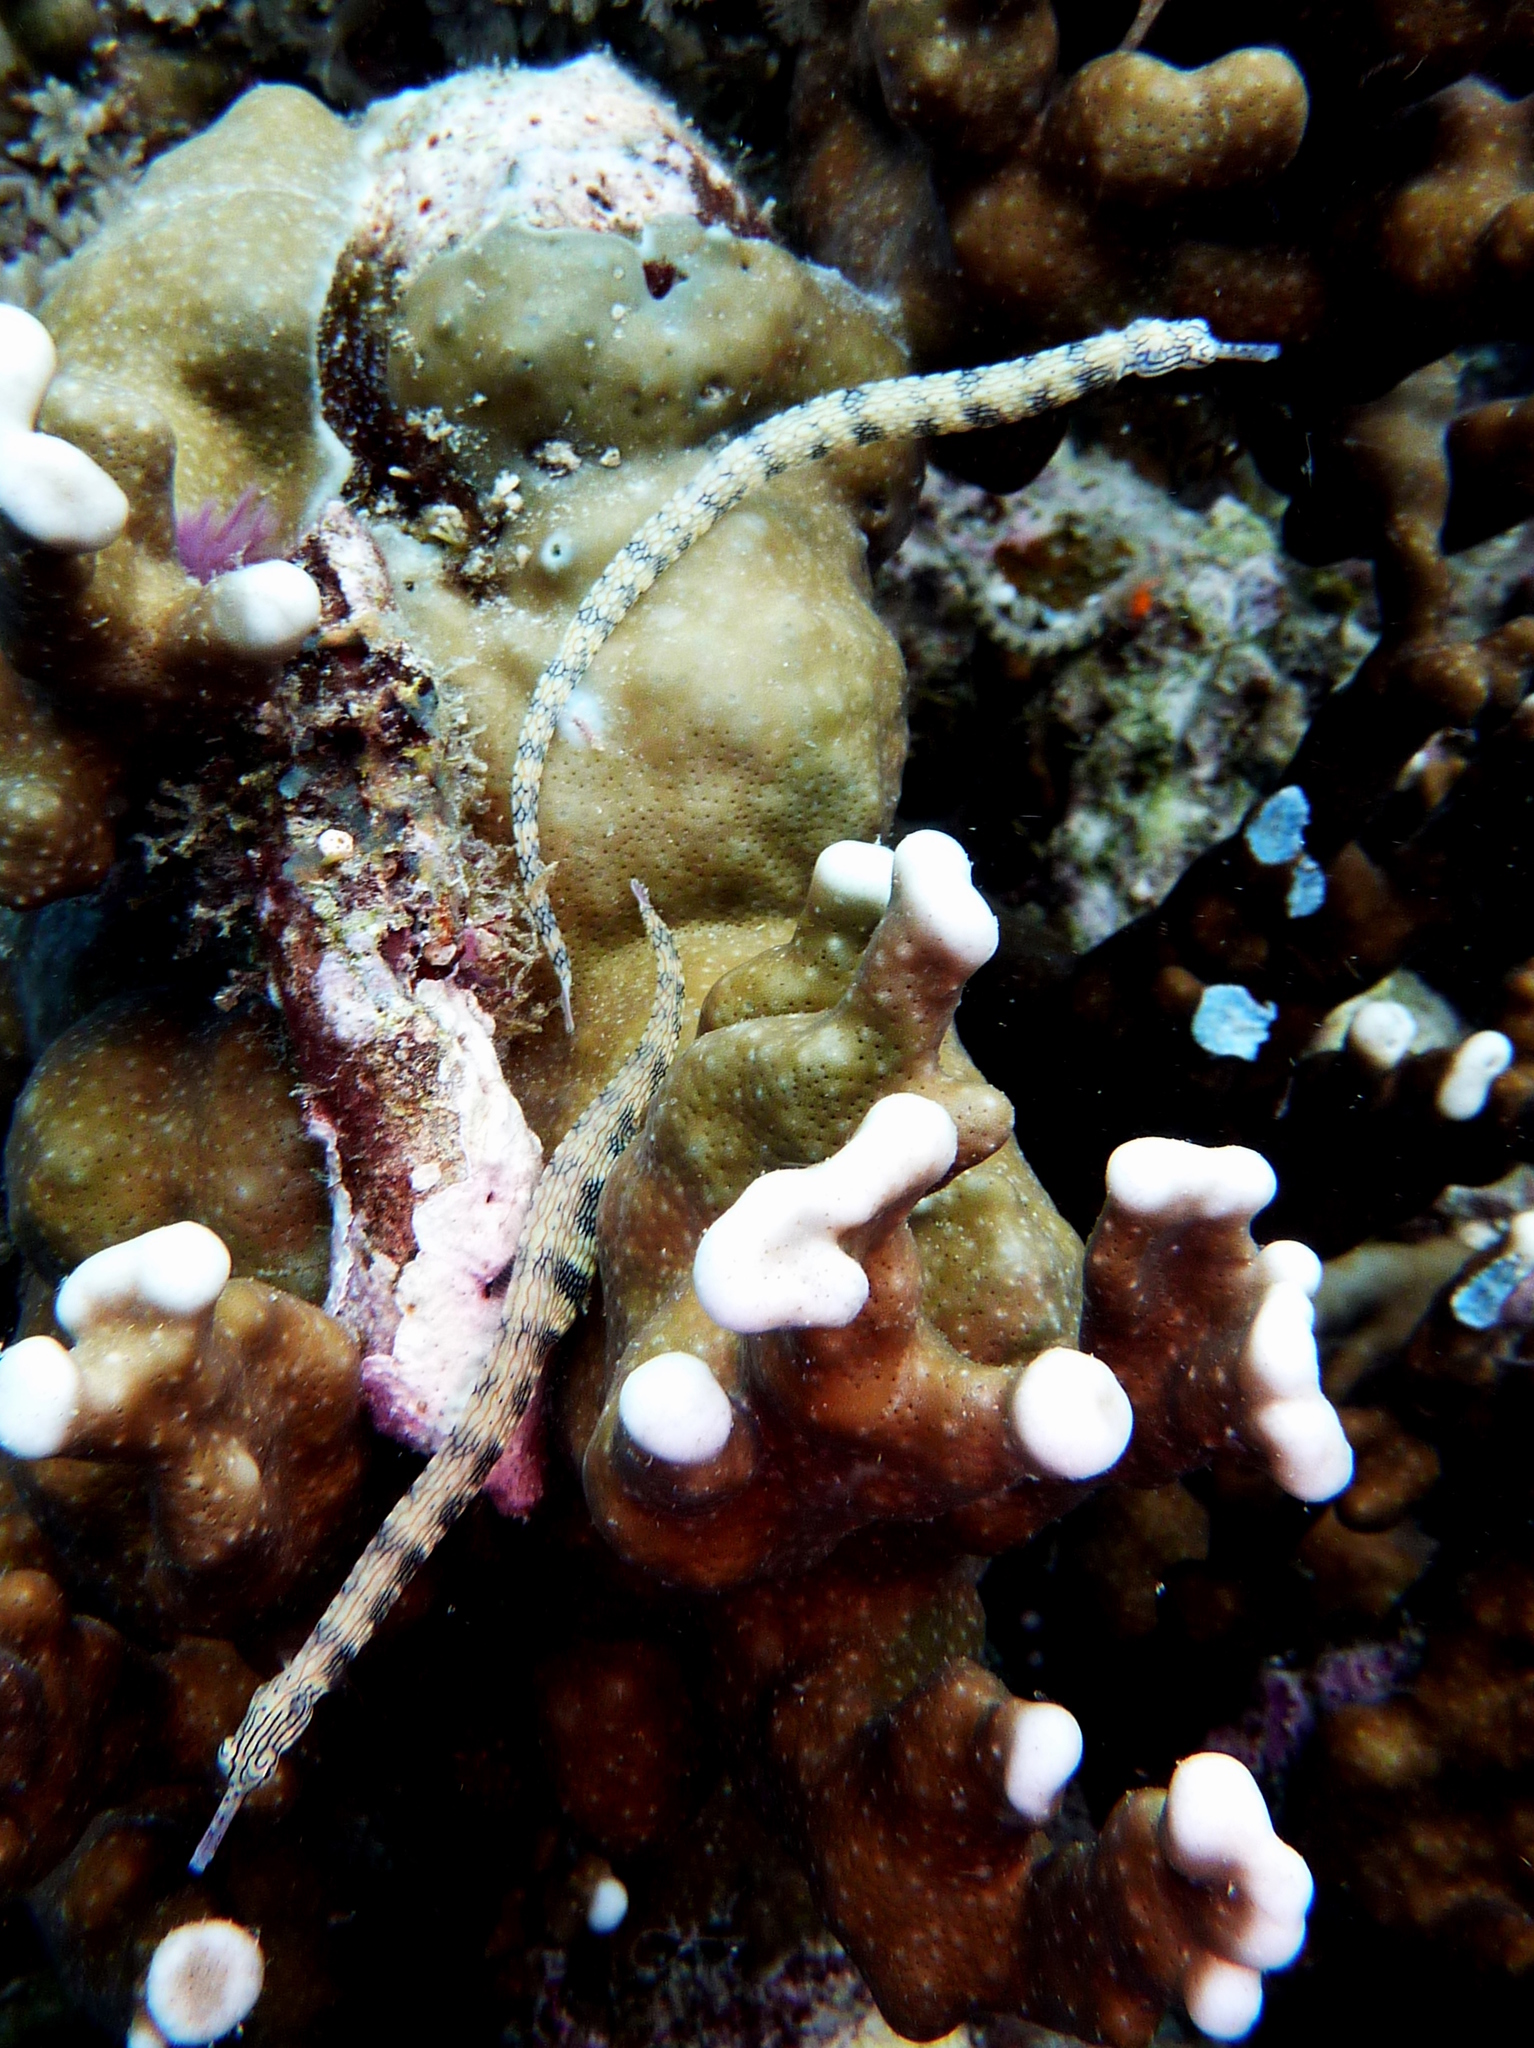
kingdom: Animalia
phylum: Chordata
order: Syngnathiformes
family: Syngnathidae
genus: Corythoichthys
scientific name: Corythoichthys intestinalis
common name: Australian banded pipefish
